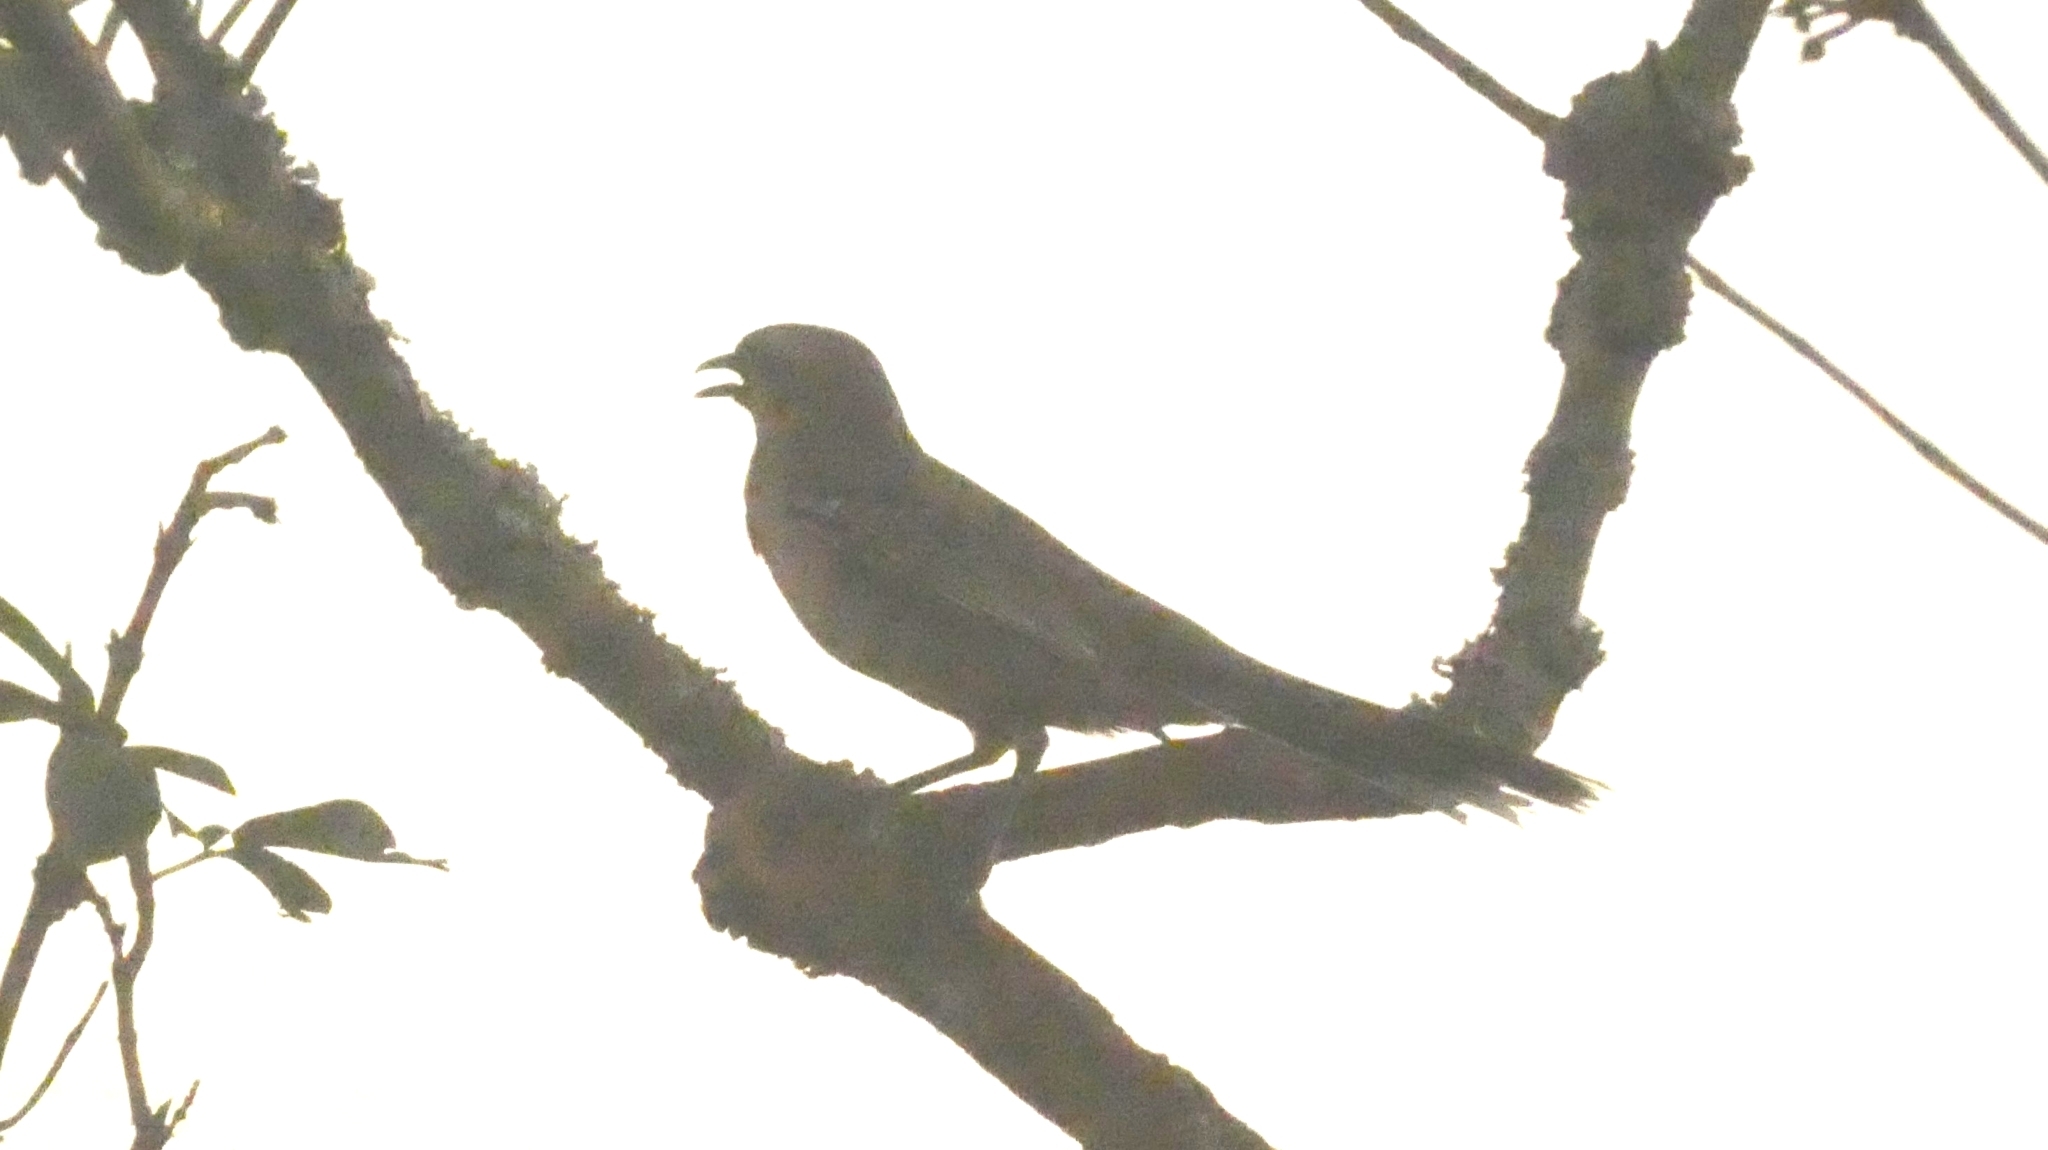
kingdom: Animalia
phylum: Chordata
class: Aves
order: Passeriformes
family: Mimidae
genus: Mimus
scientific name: Mimus saturninus
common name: Chalk-browed mockingbird
